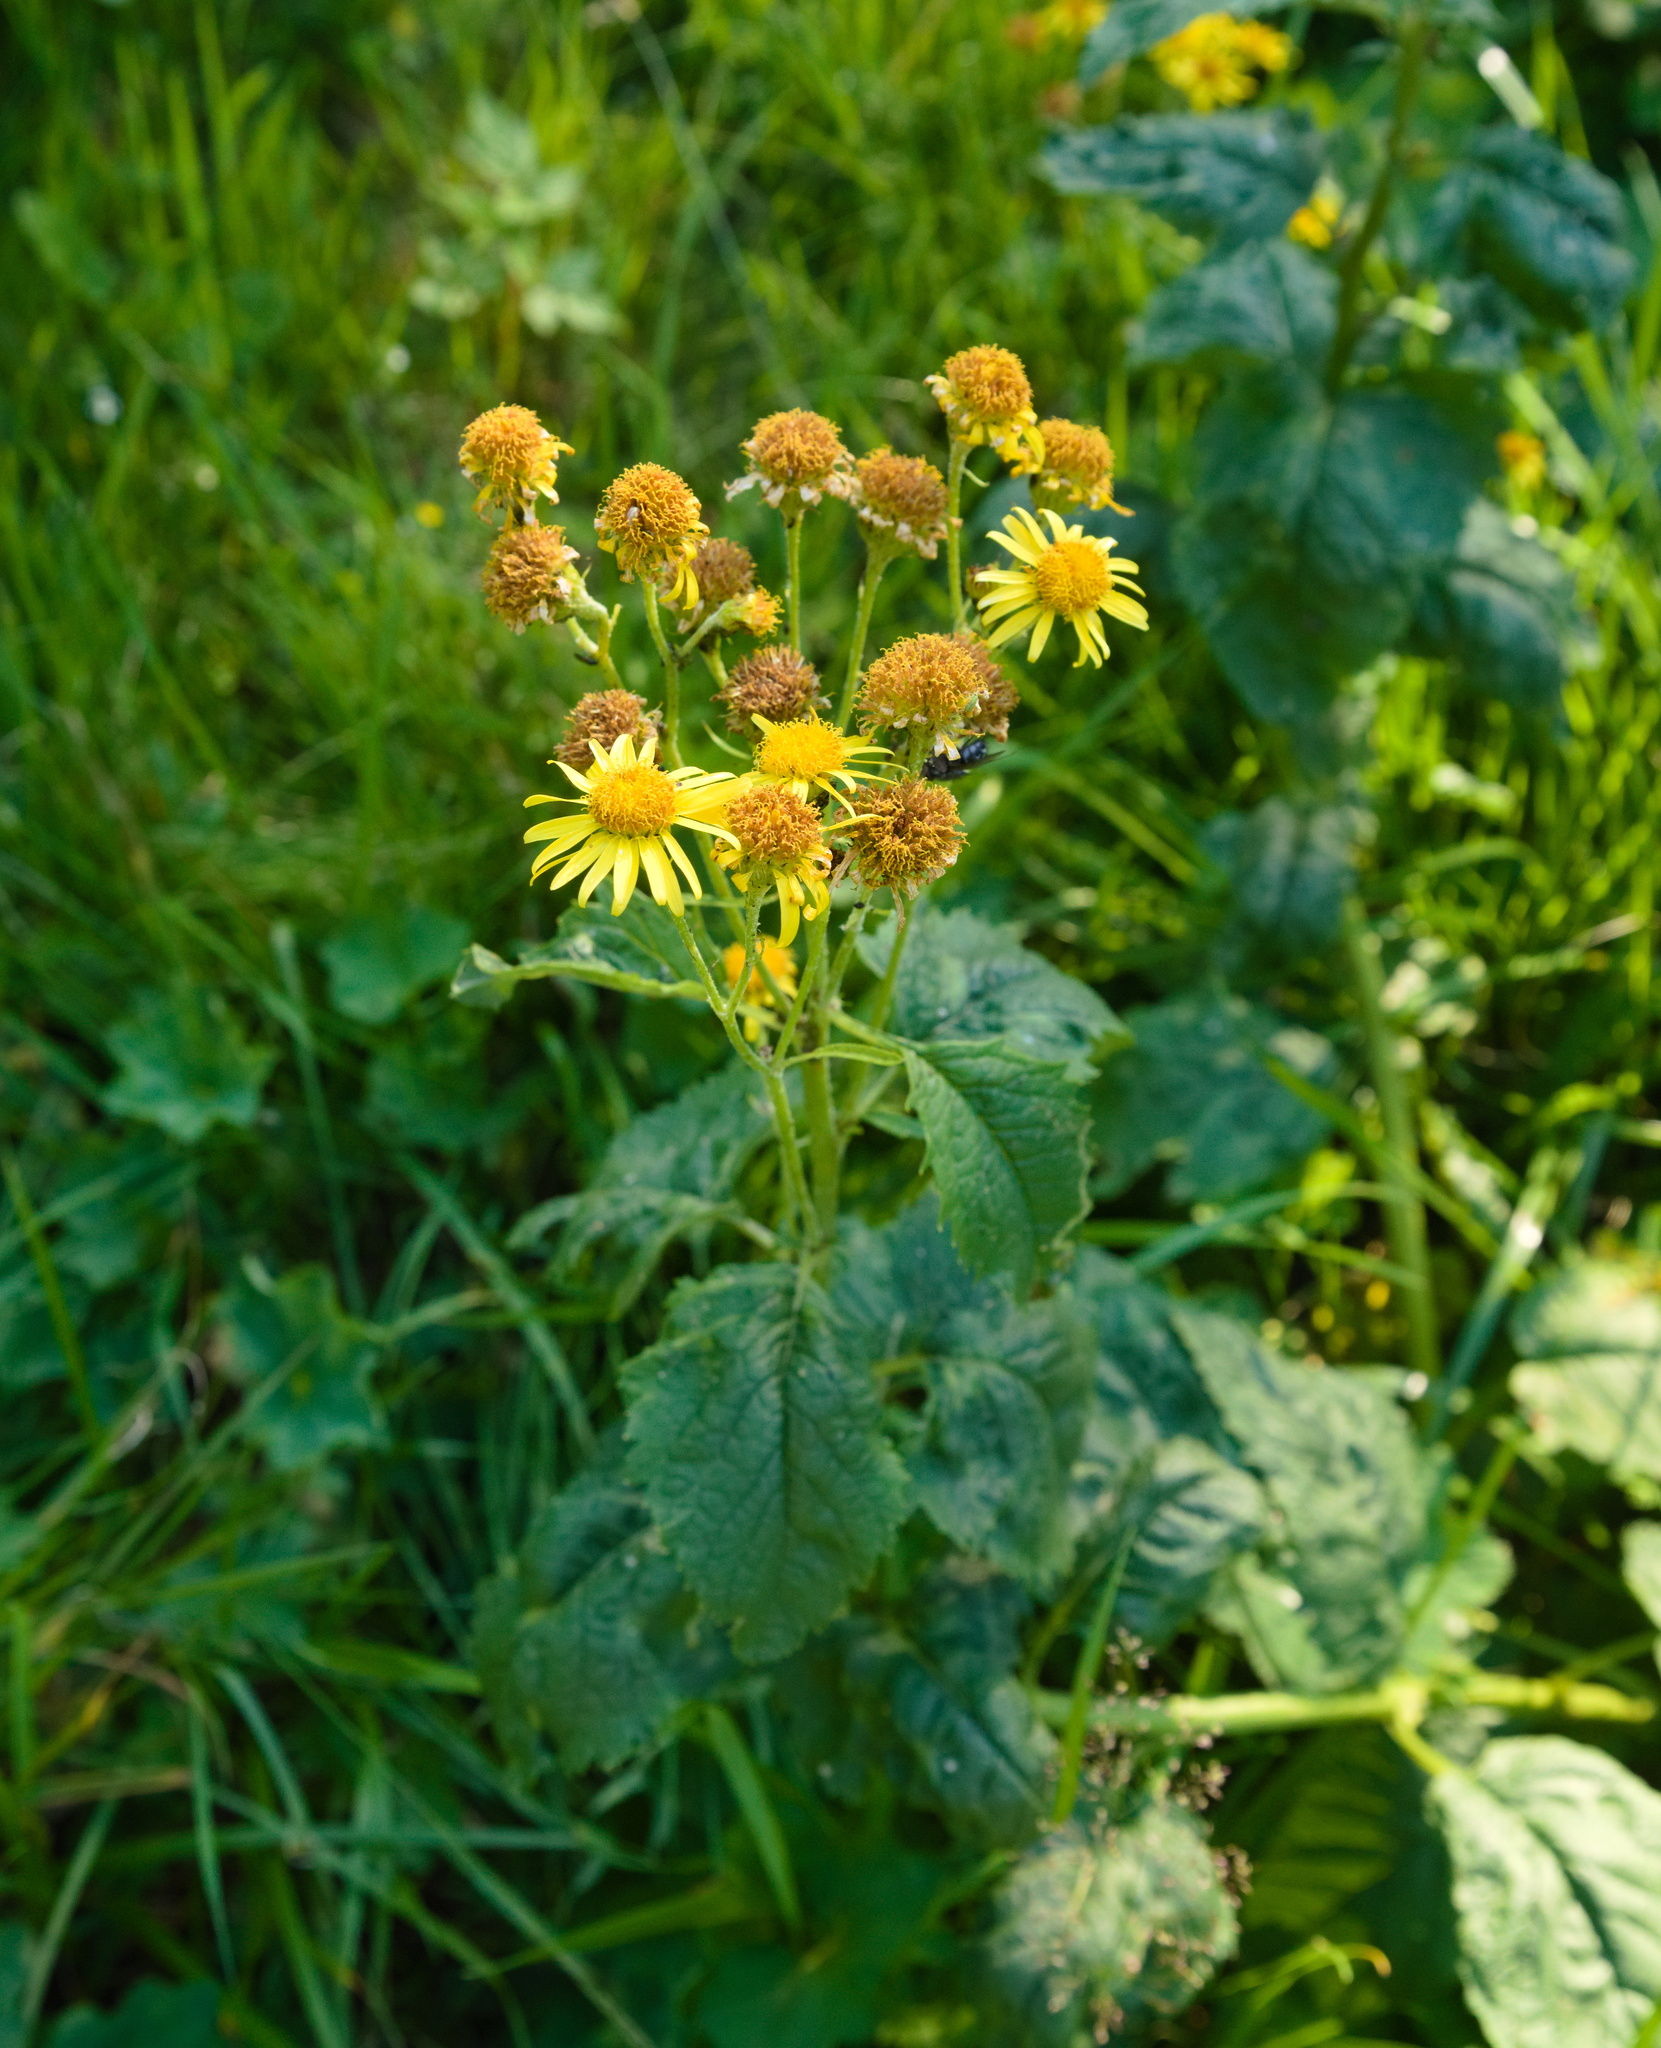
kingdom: Plantae
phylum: Tracheophyta
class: Magnoliopsida
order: Asterales
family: Asteraceae
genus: Jacobaea
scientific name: Jacobaea alpina
